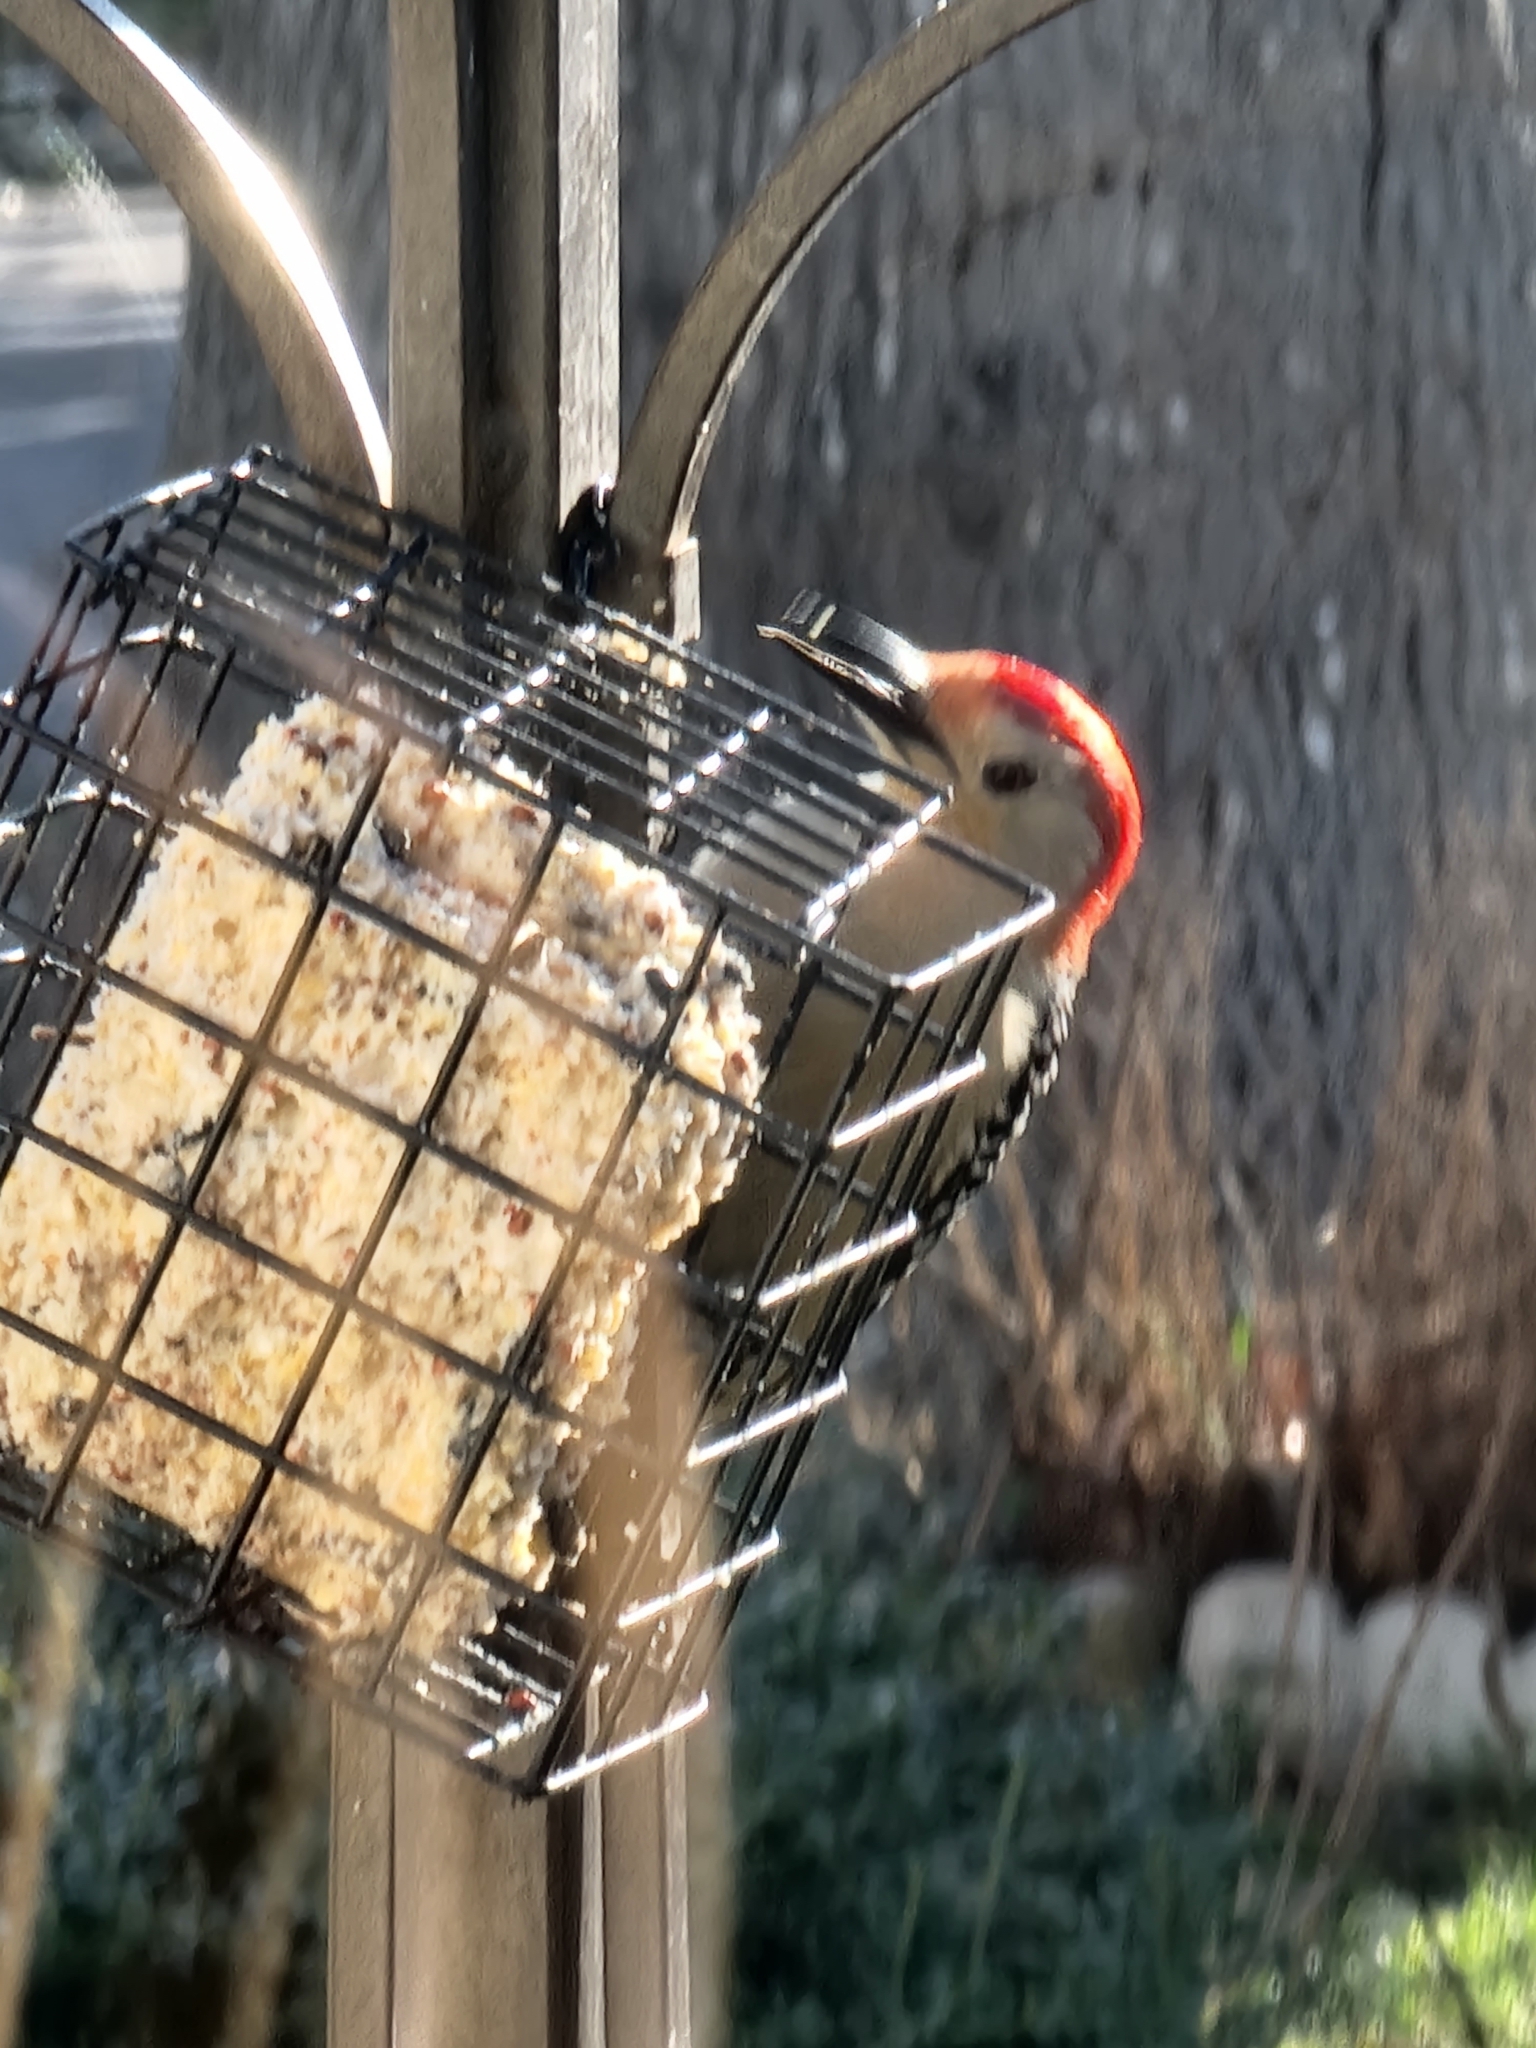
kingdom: Animalia
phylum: Chordata
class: Aves
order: Piciformes
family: Picidae
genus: Melanerpes
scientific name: Melanerpes carolinus
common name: Red-bellied woodpecker
